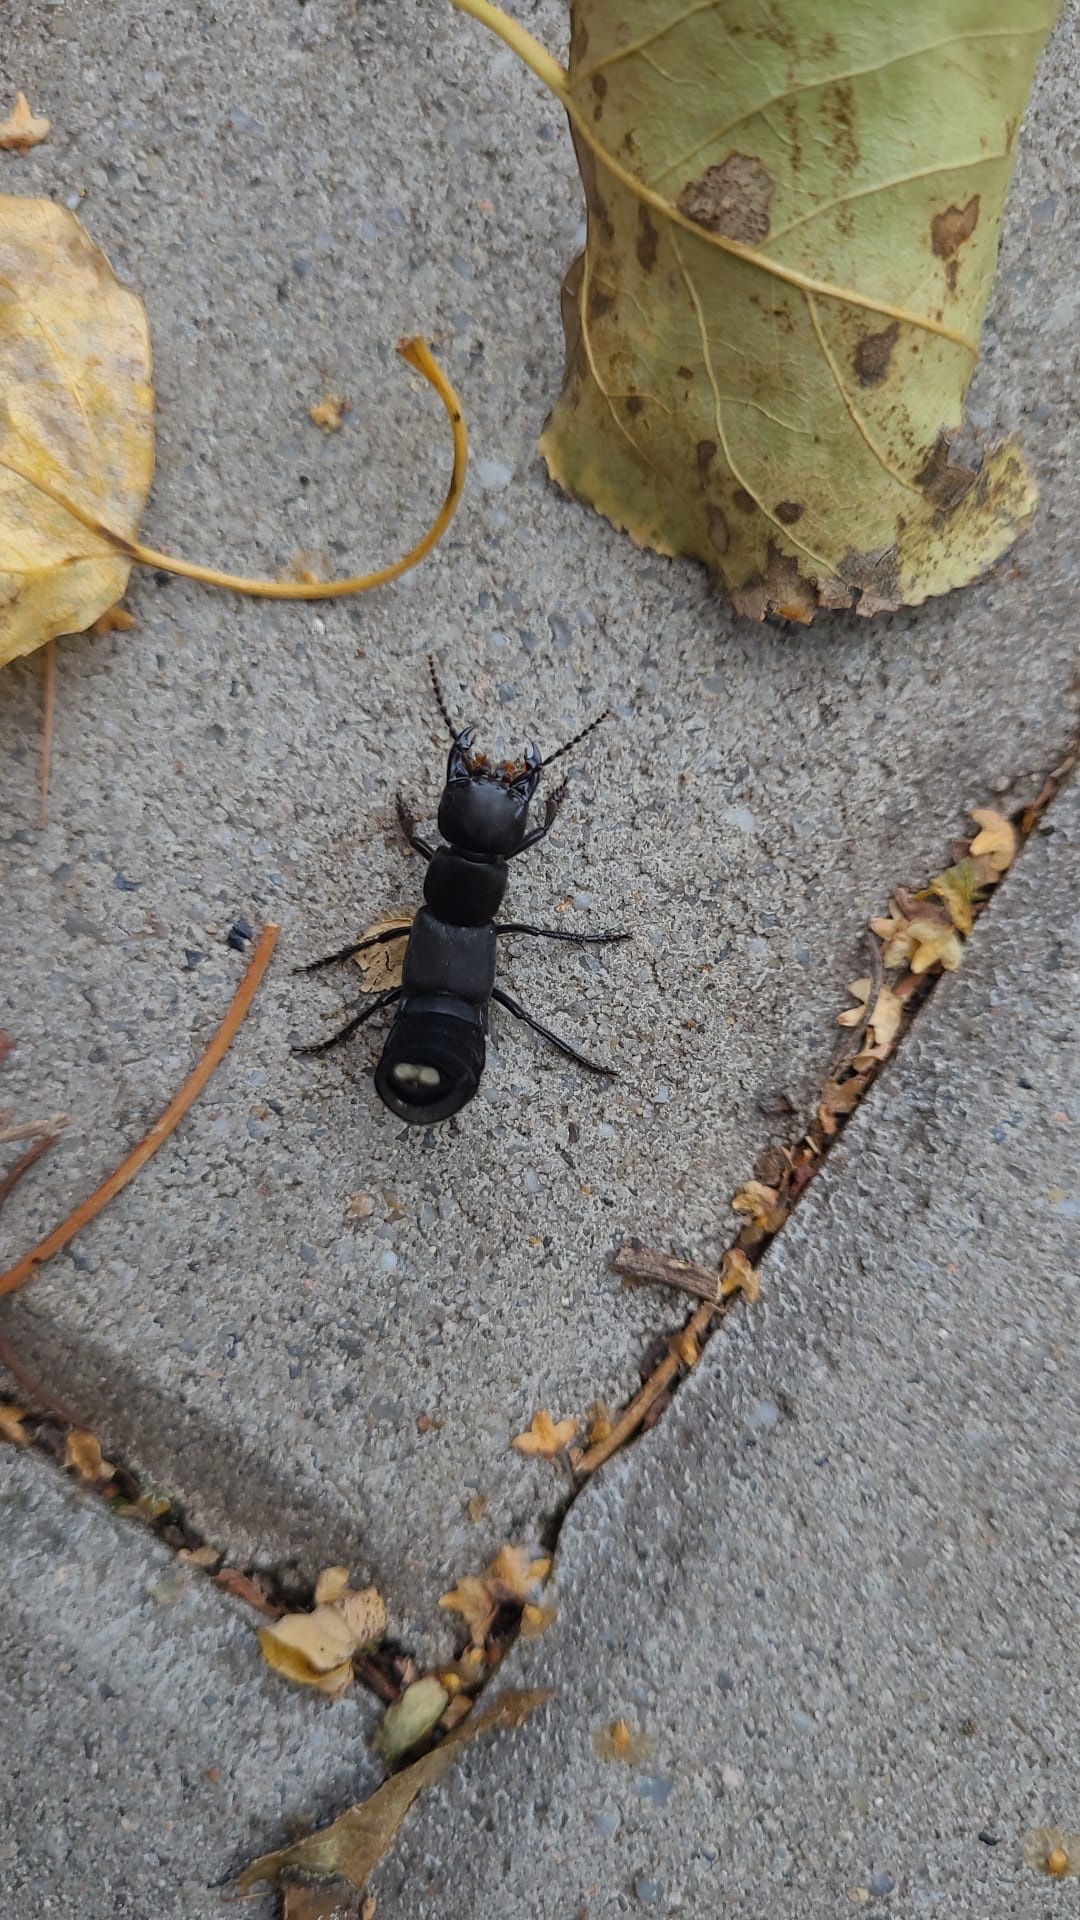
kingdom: Animalia
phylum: Arthropoda
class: Insecta
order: Coleoptera
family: Staphylinidae
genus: Ocypus
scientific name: Ocypus olens
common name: Devil's coach-horse
